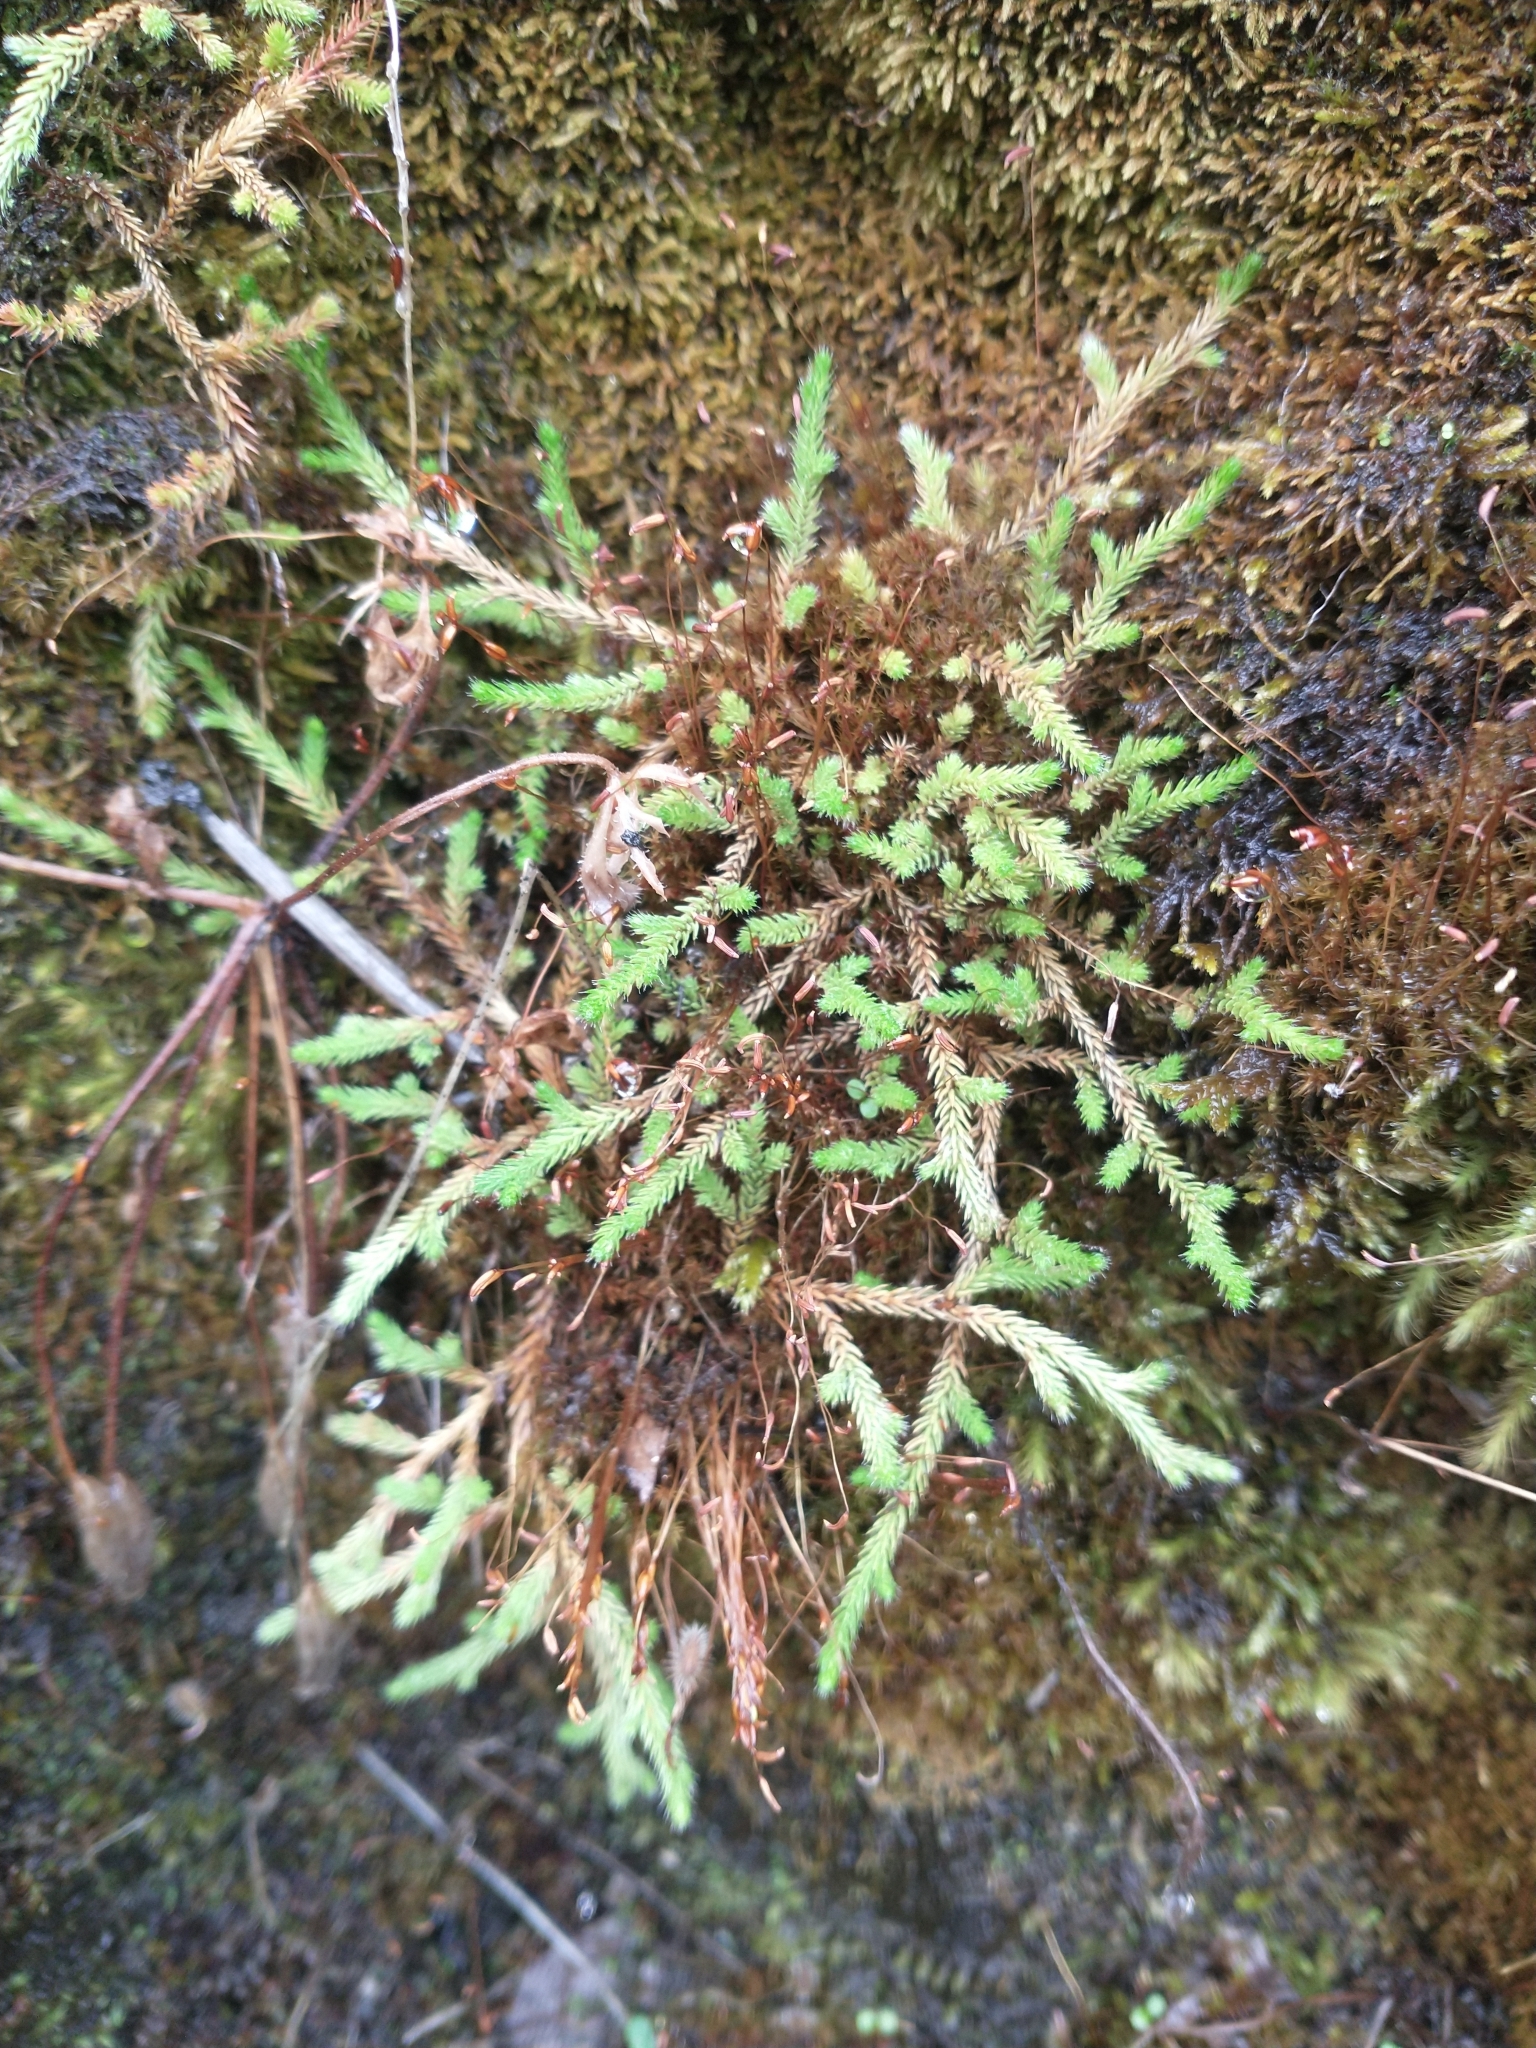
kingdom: Plantae
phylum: Tracheophyta
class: Lycopodiopsida
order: Selaginellales
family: Selaginellaceae
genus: Selaginella
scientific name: Selaginella wallacei
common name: Wallace's selaginella
